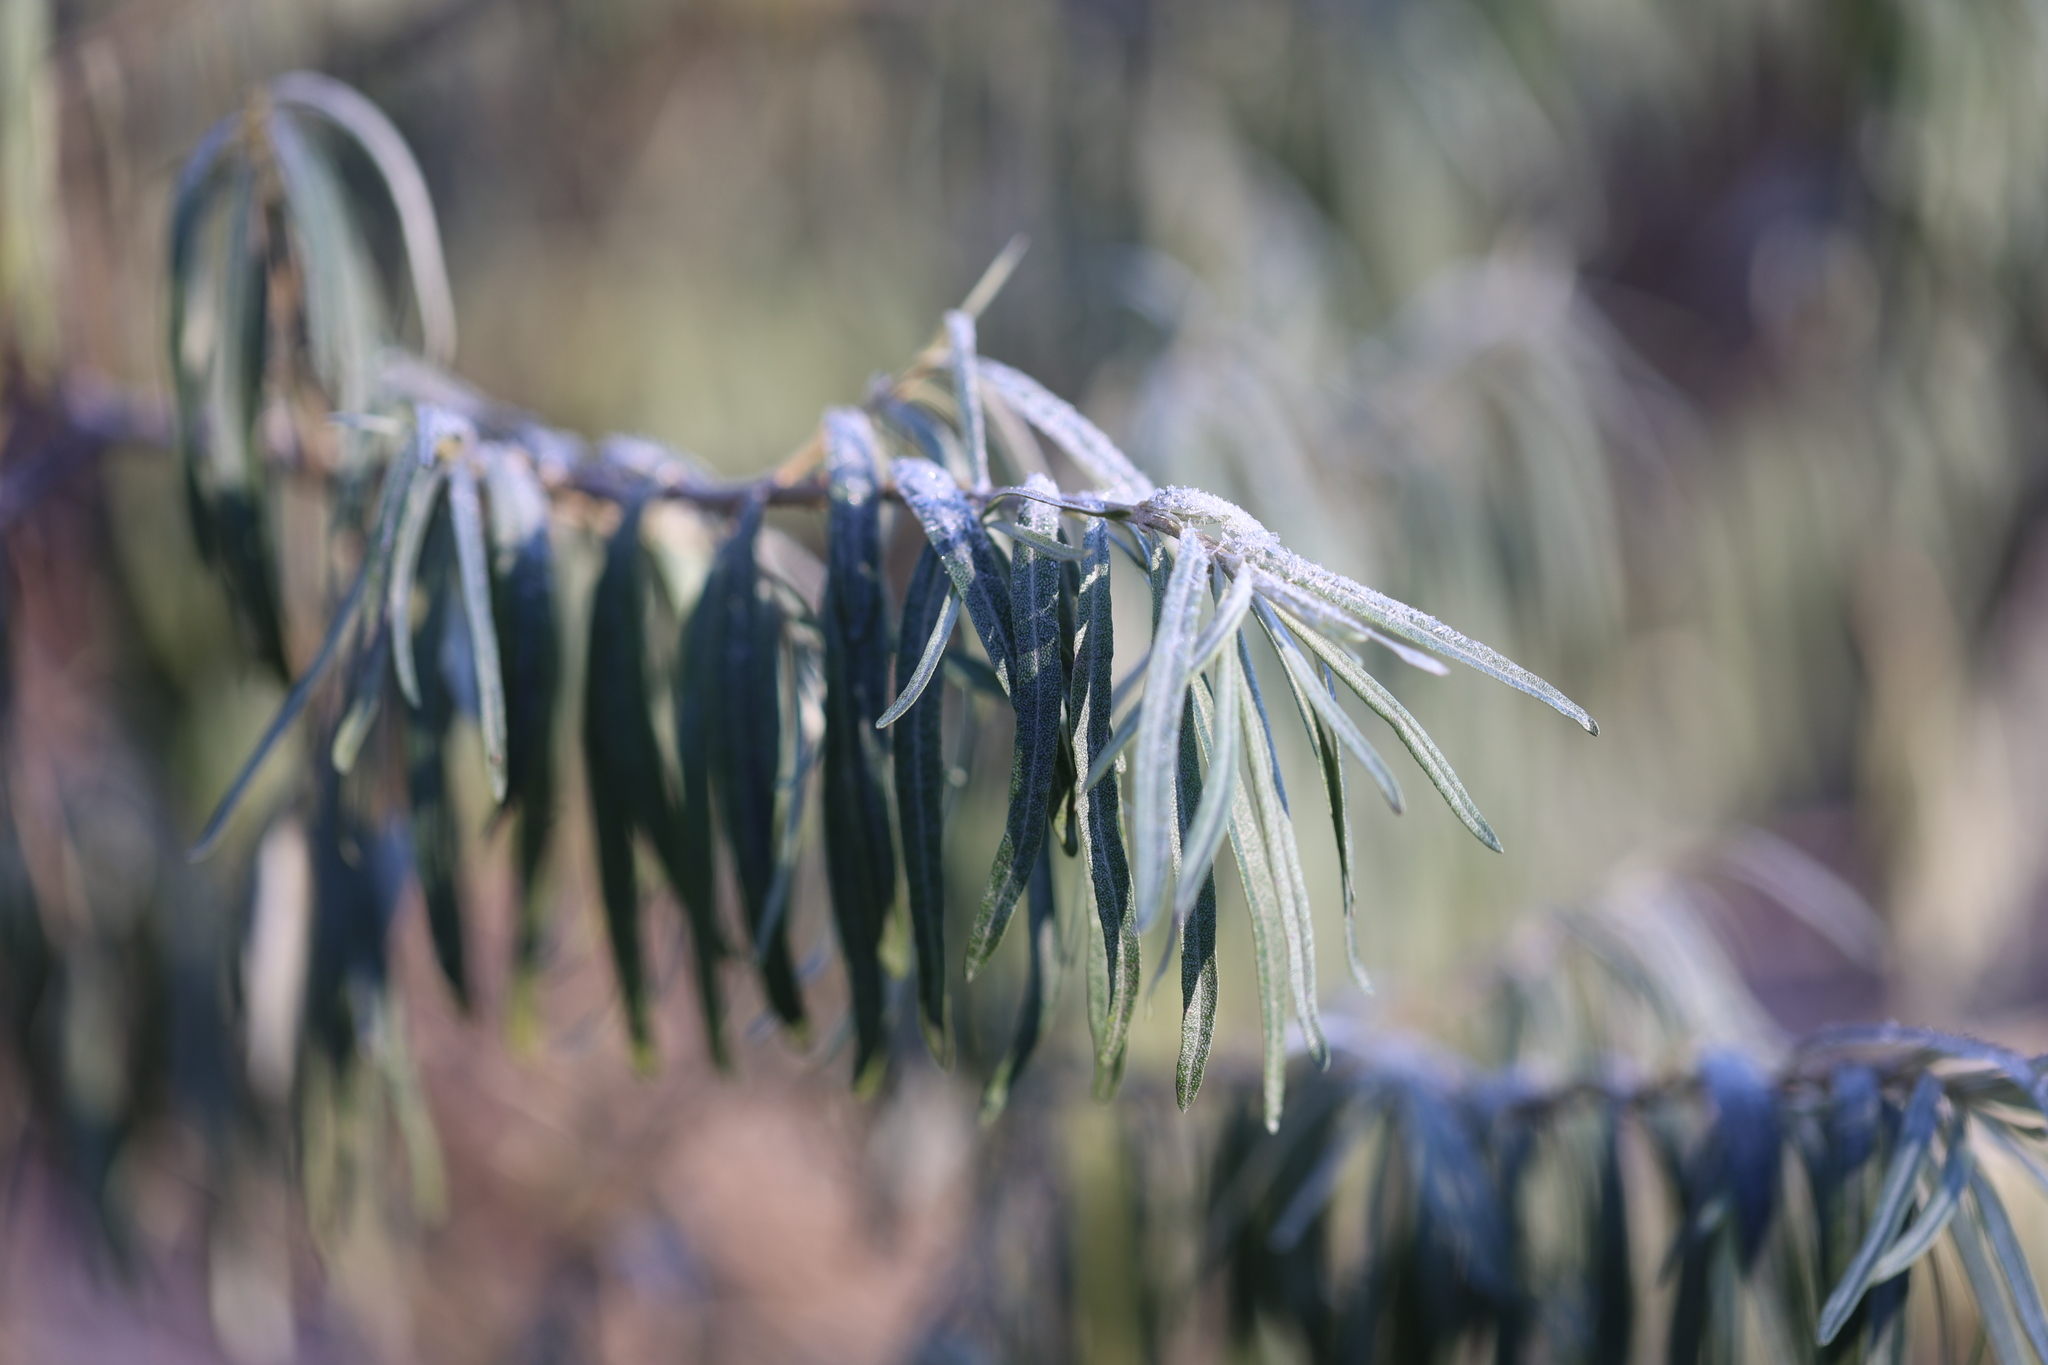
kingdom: Plantae
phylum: Tracheophyta
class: Magnoliopsida
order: Rosales
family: Elaeagnaceae
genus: Hippophae
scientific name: Hippophae rhamnoides
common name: Sea-buckthorn
